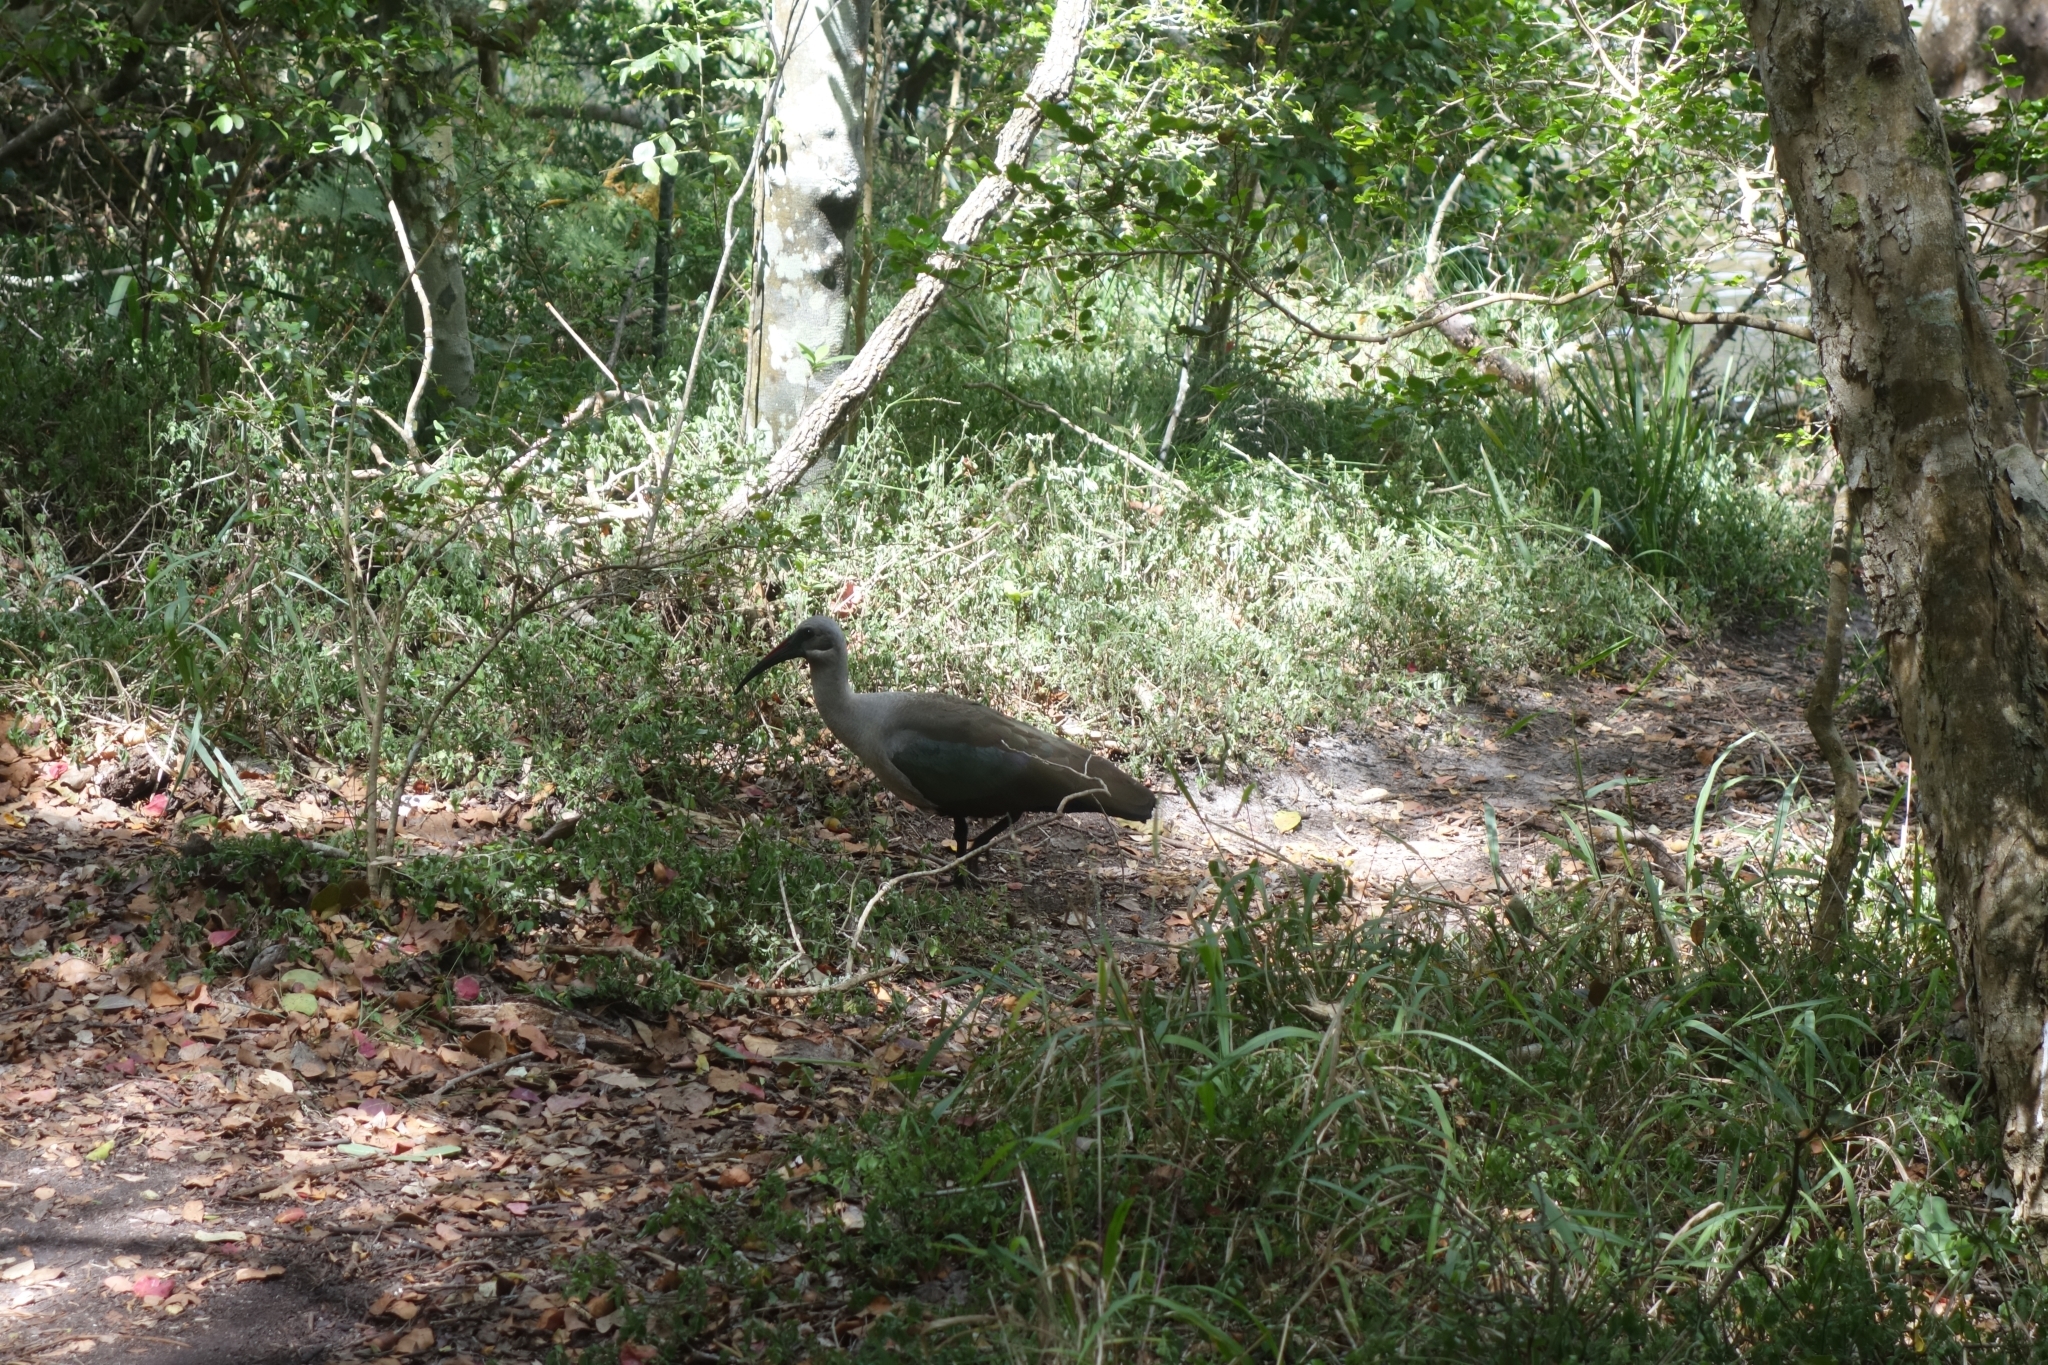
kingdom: Animalia
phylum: Chordata
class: Aves
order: Pelecaniformes
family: Threskiornithidae
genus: Bostrychia
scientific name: Bostrychia hagedash
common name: Hadada ibis
